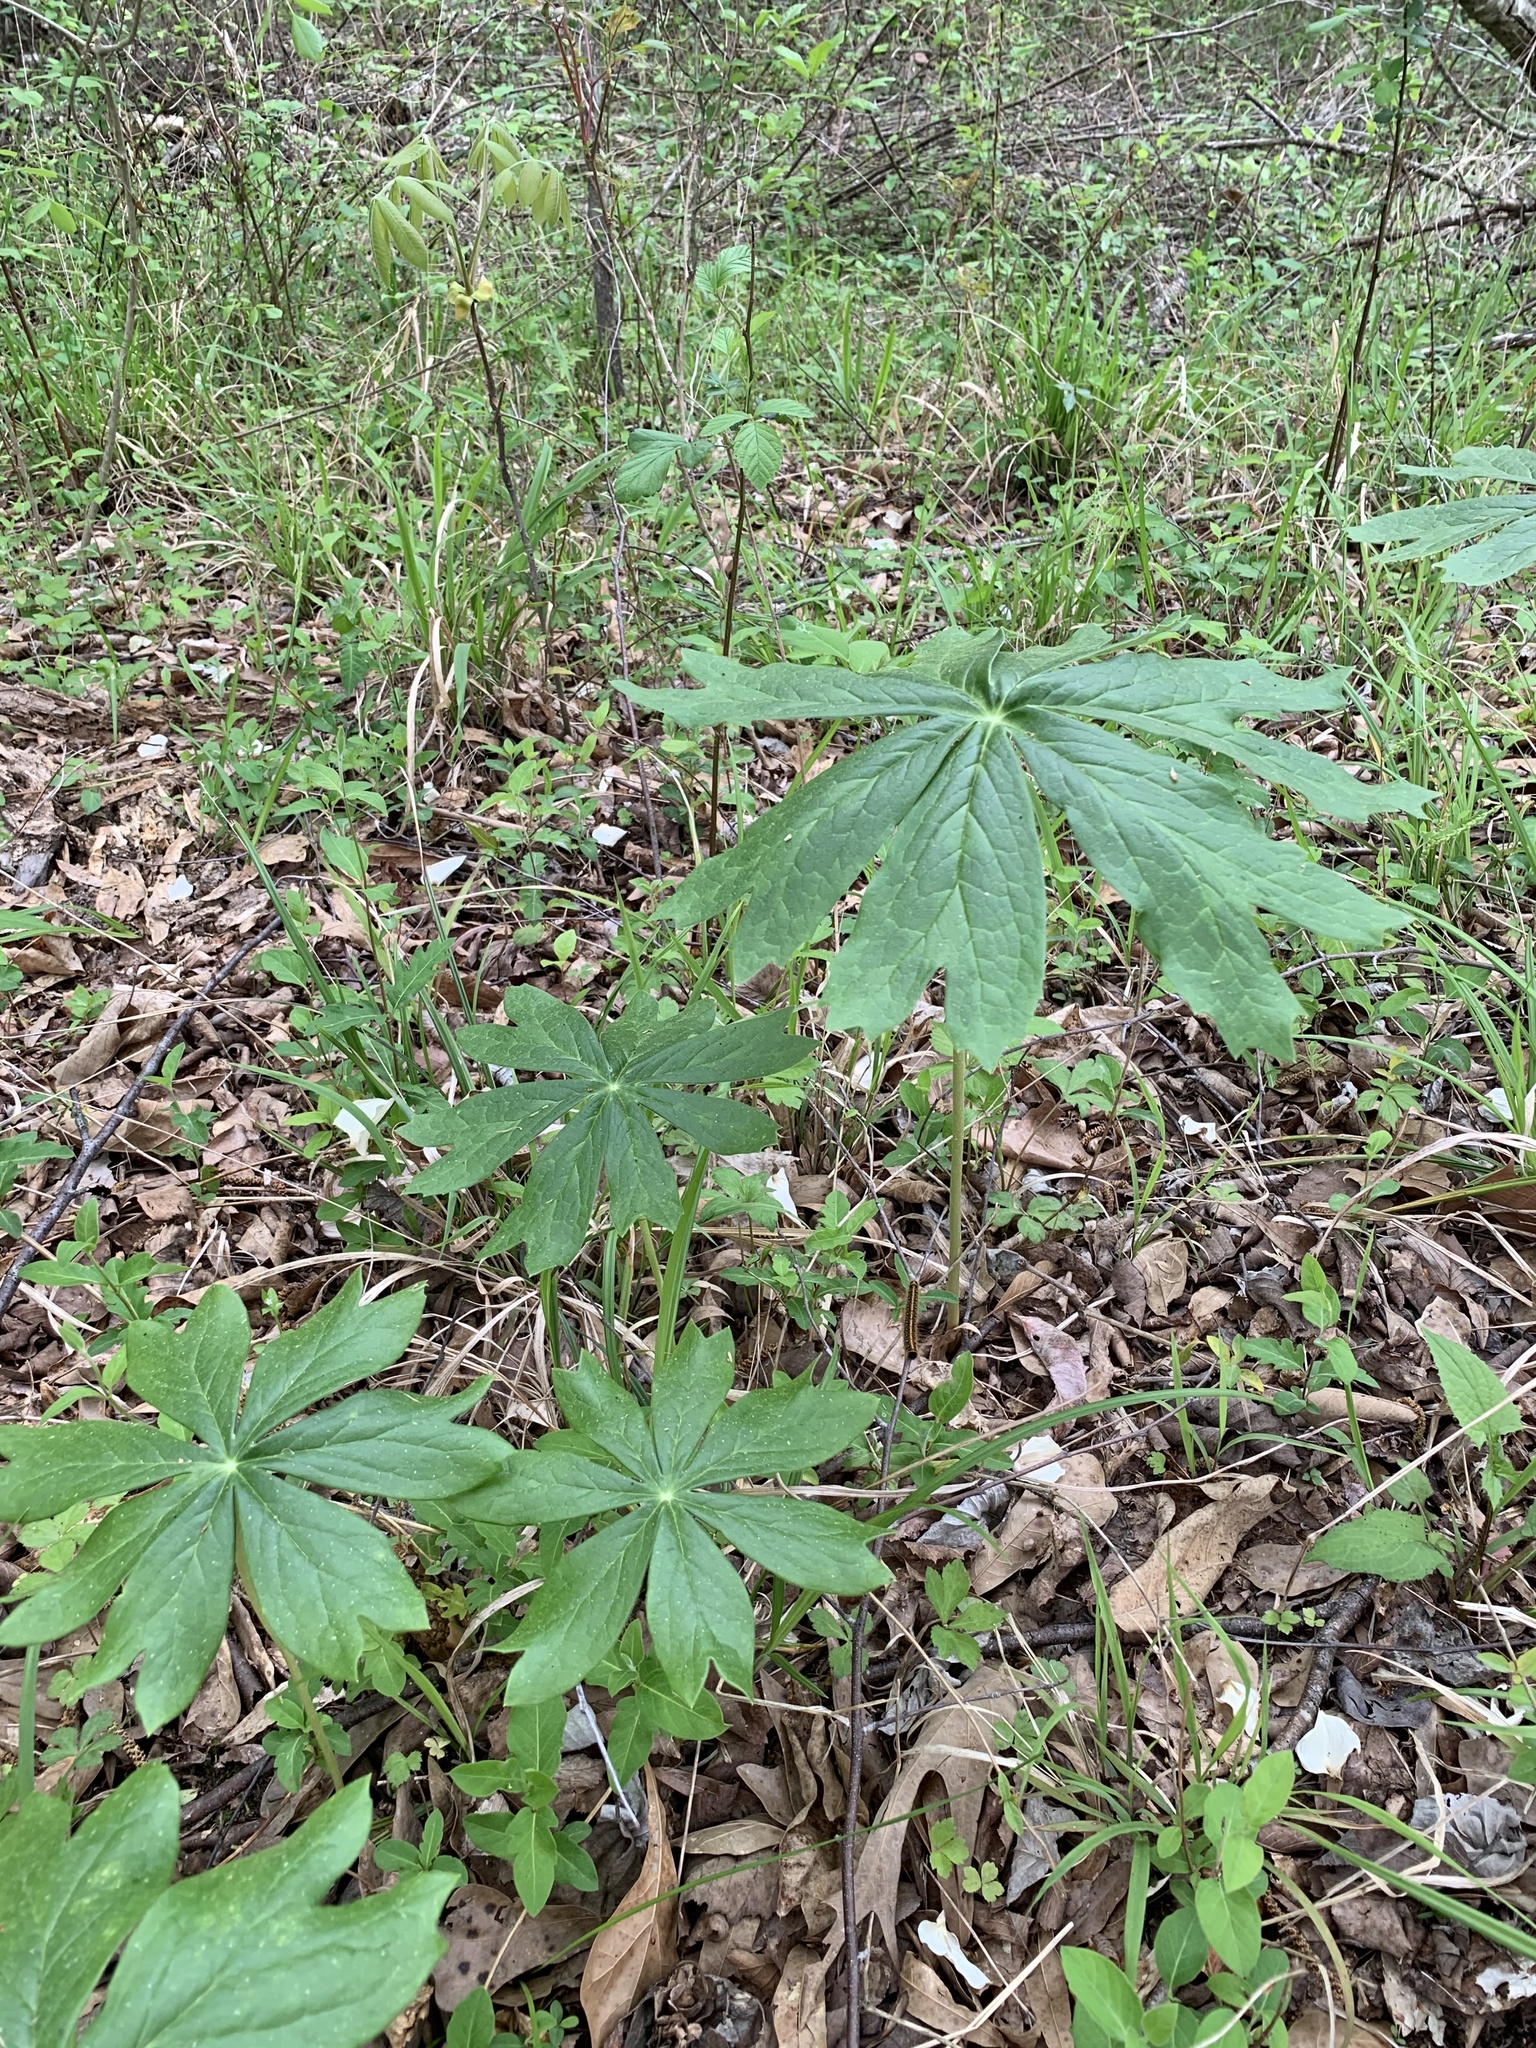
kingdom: Plantae
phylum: Tracheophyta
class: Magnoliopsida
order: Ranunculales
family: Berberidaceae
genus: Podophyllum
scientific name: Podophyllum peltatum
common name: Wild mandrake
